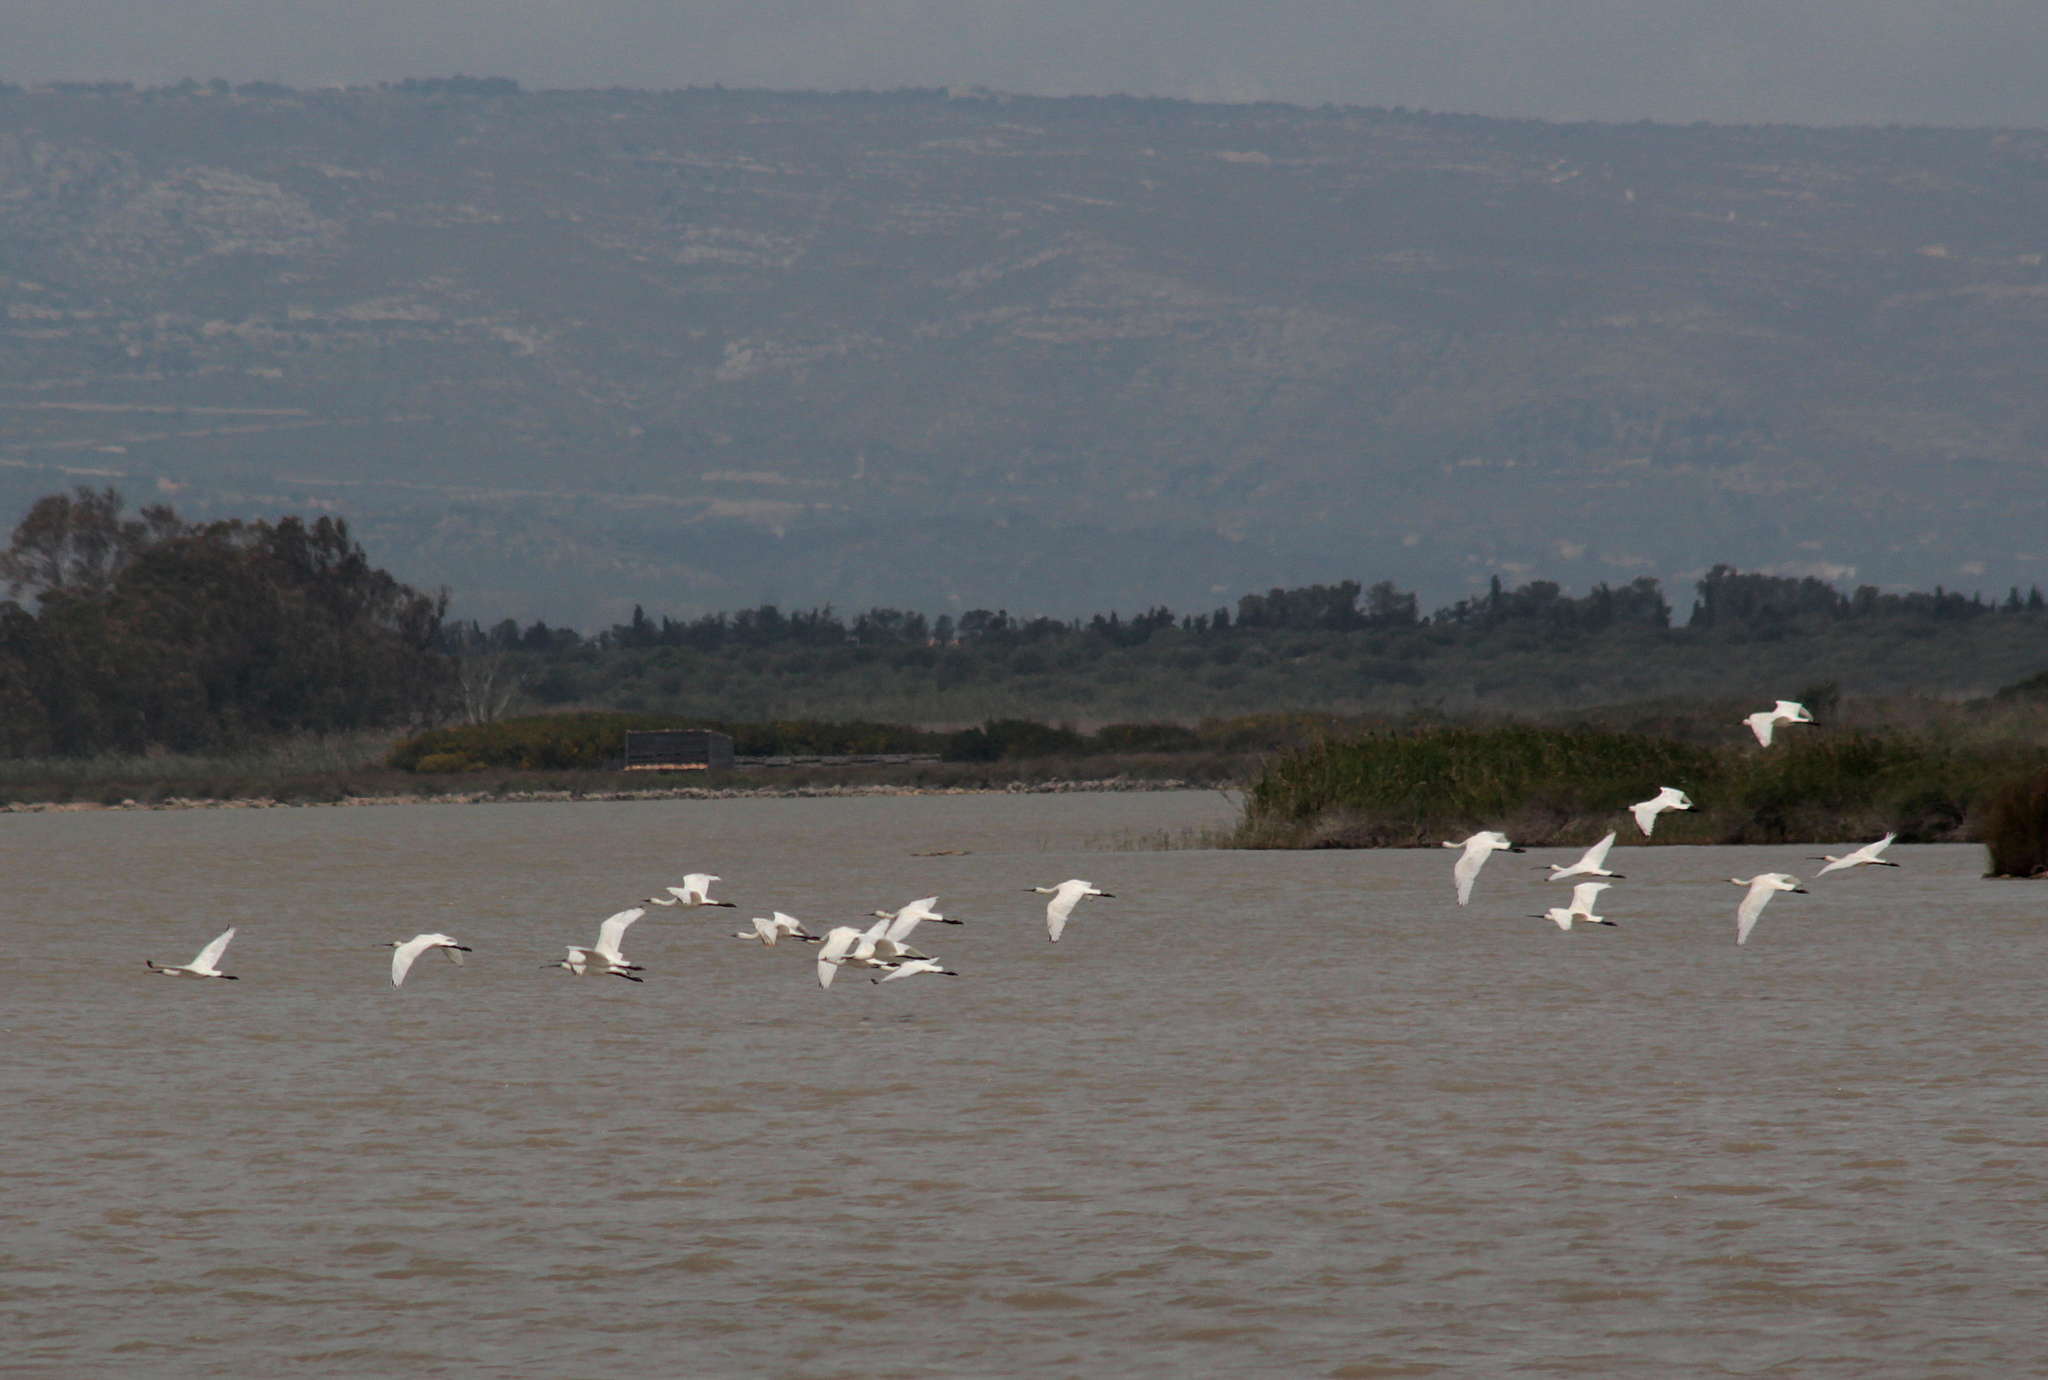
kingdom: Animalia
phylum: Chordata
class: Aves
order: Pelecaniformes
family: Threskiornithidae
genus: Platalea
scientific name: Platalea leucorodia
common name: Eurasian spoonbill
